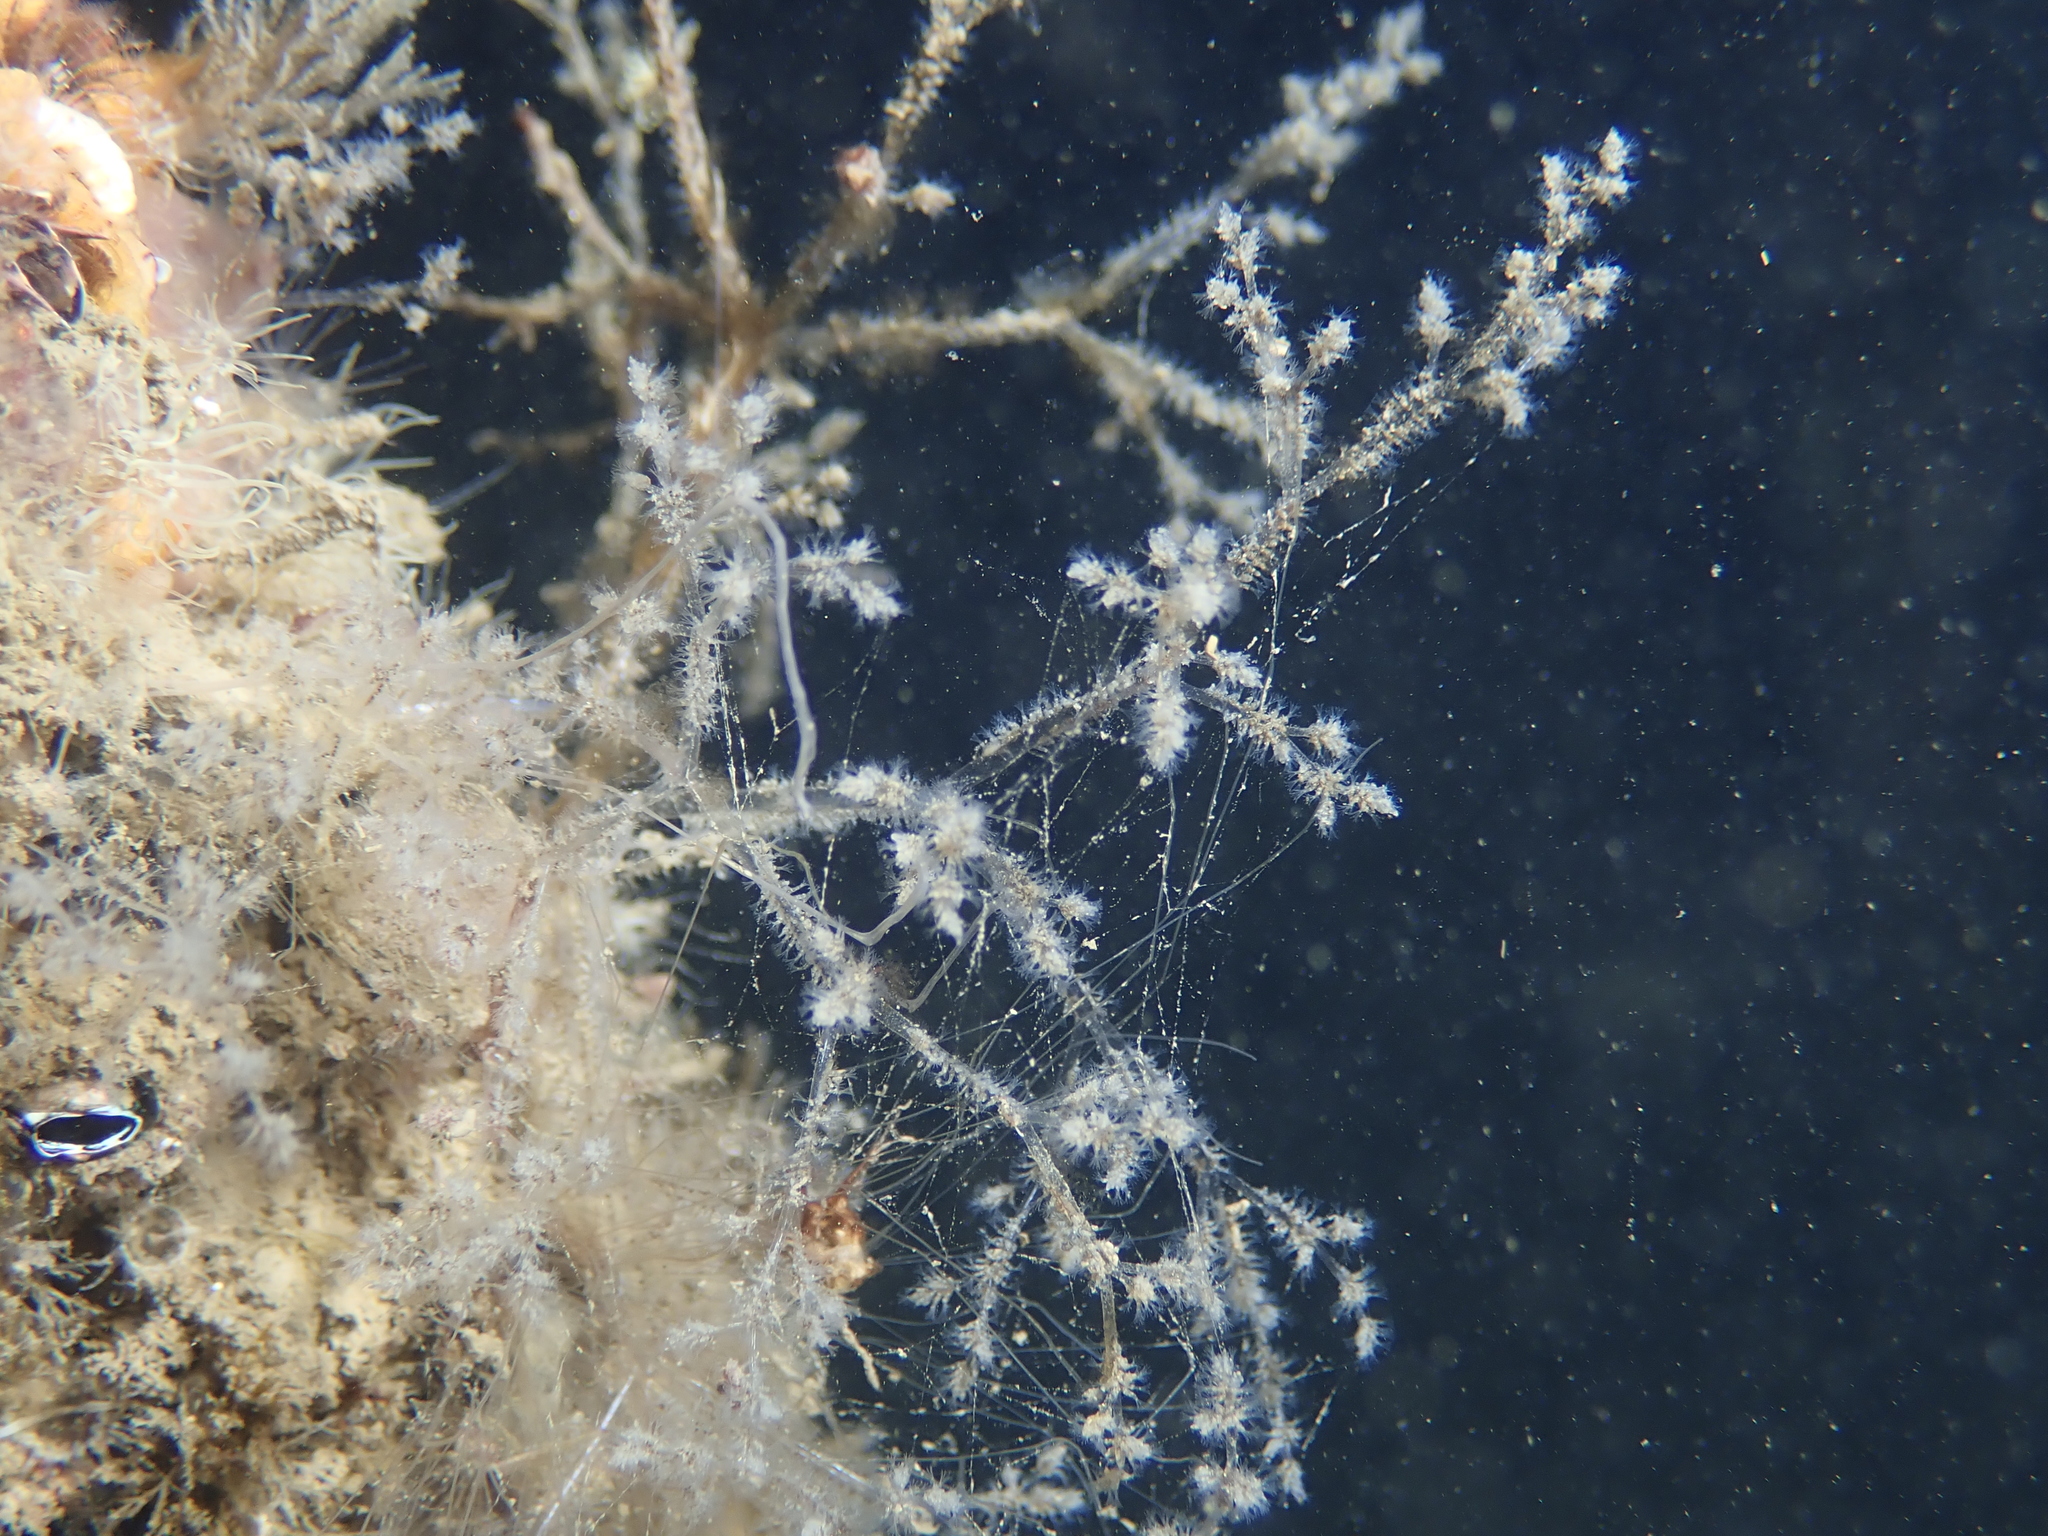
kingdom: Animalia
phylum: Bryozoa
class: Gymnolaemata
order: Ctenostomatida
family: Vesiculariidae
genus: Amathia
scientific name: Amathia verticillata
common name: Whorled zoobotryon
